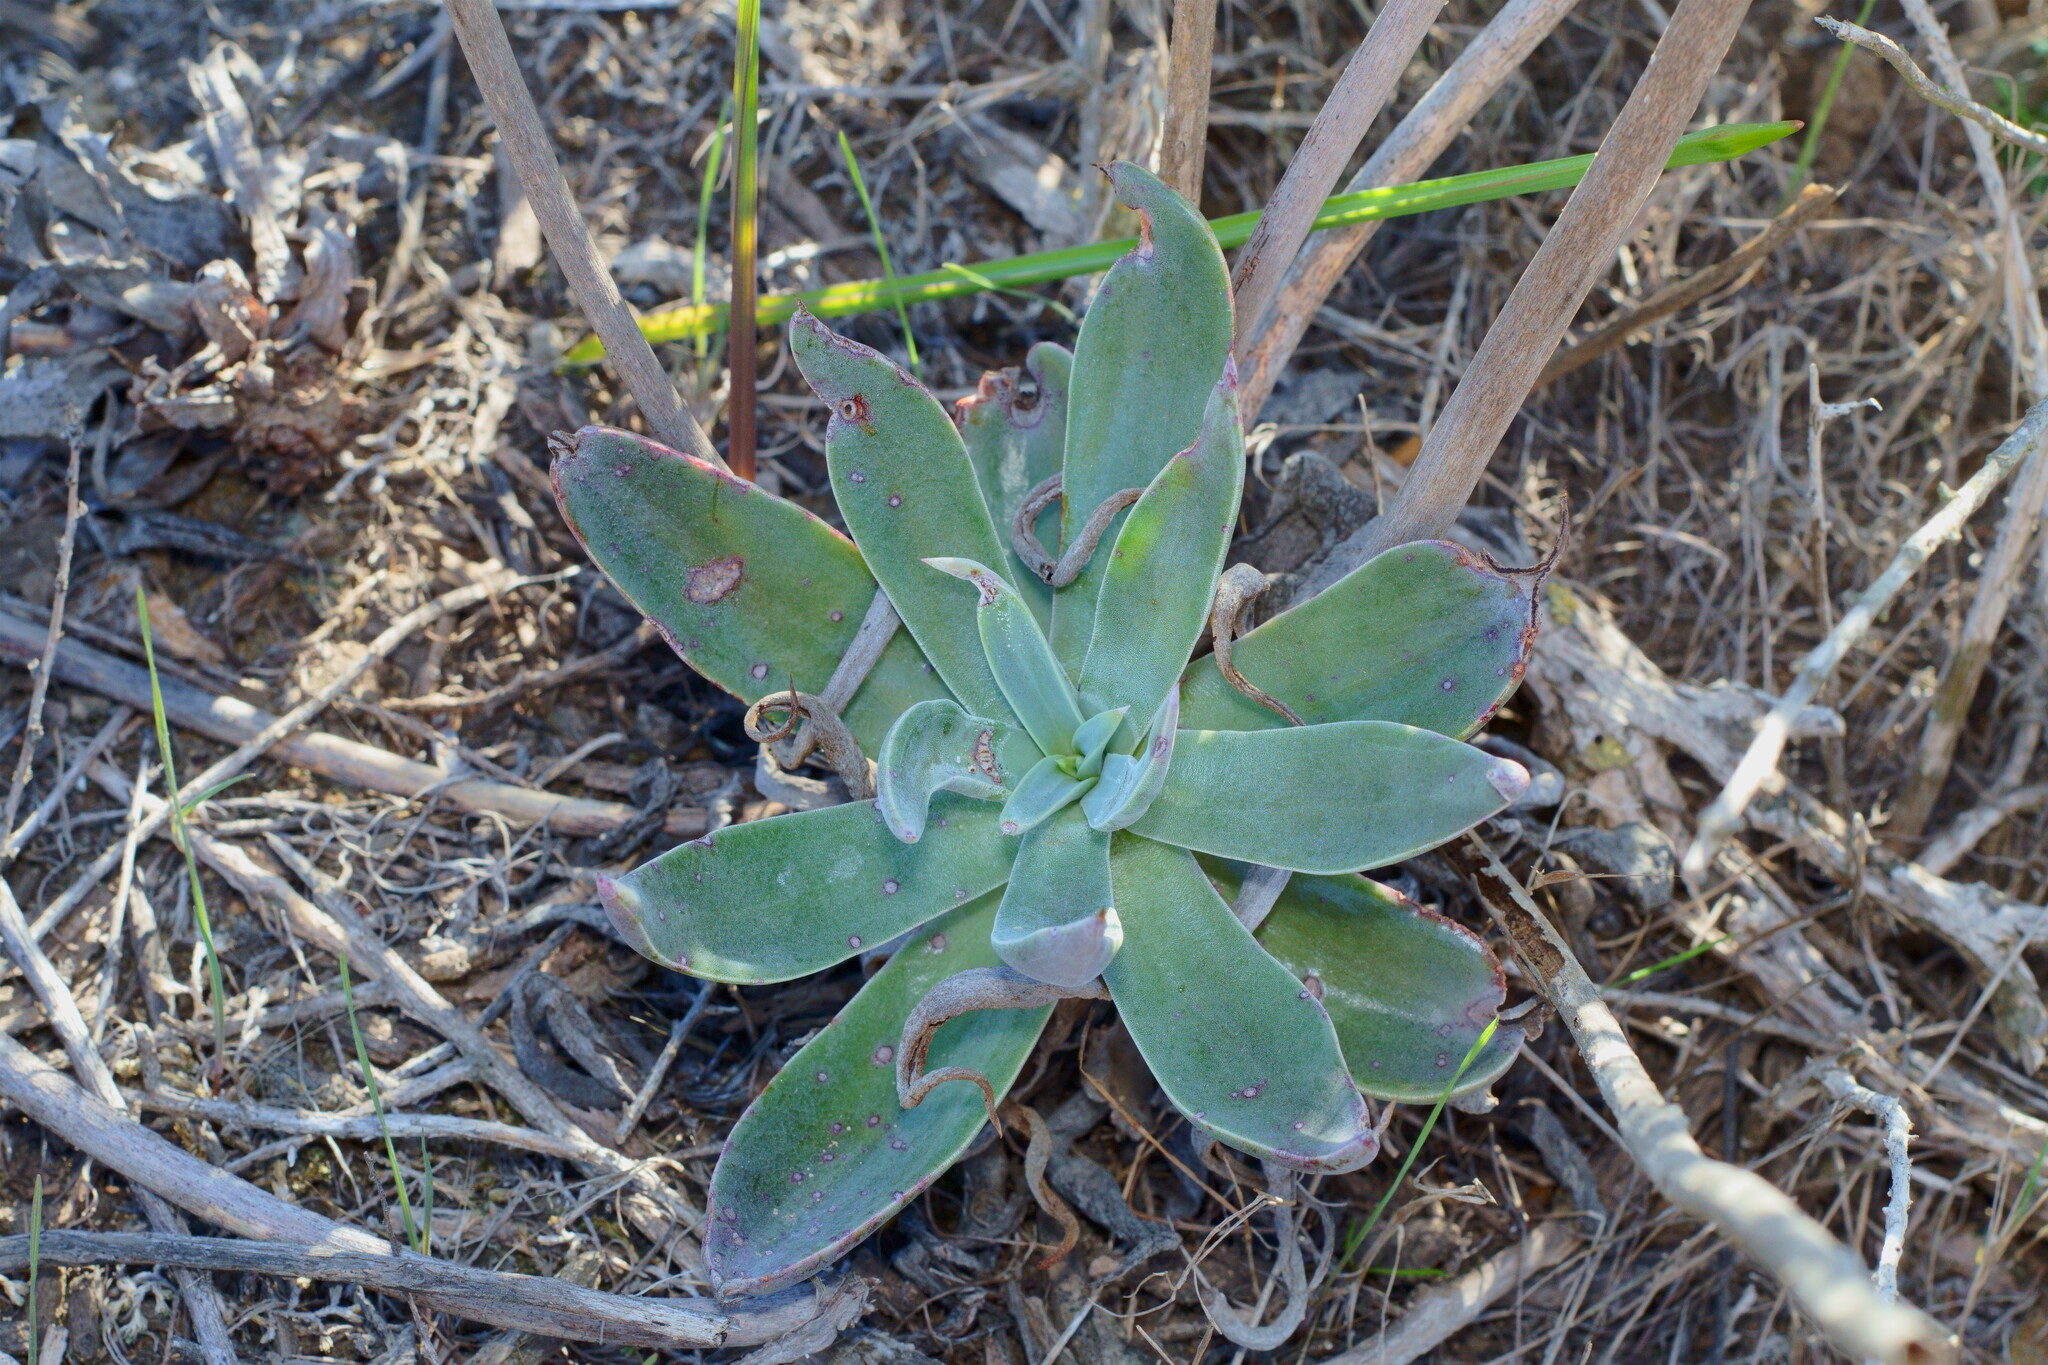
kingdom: Plantae
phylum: Tracheophyta
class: Magnoliopsida
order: Saxifragales
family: Crassulaceae
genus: Dudleya
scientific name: Dudleya lanceolata
